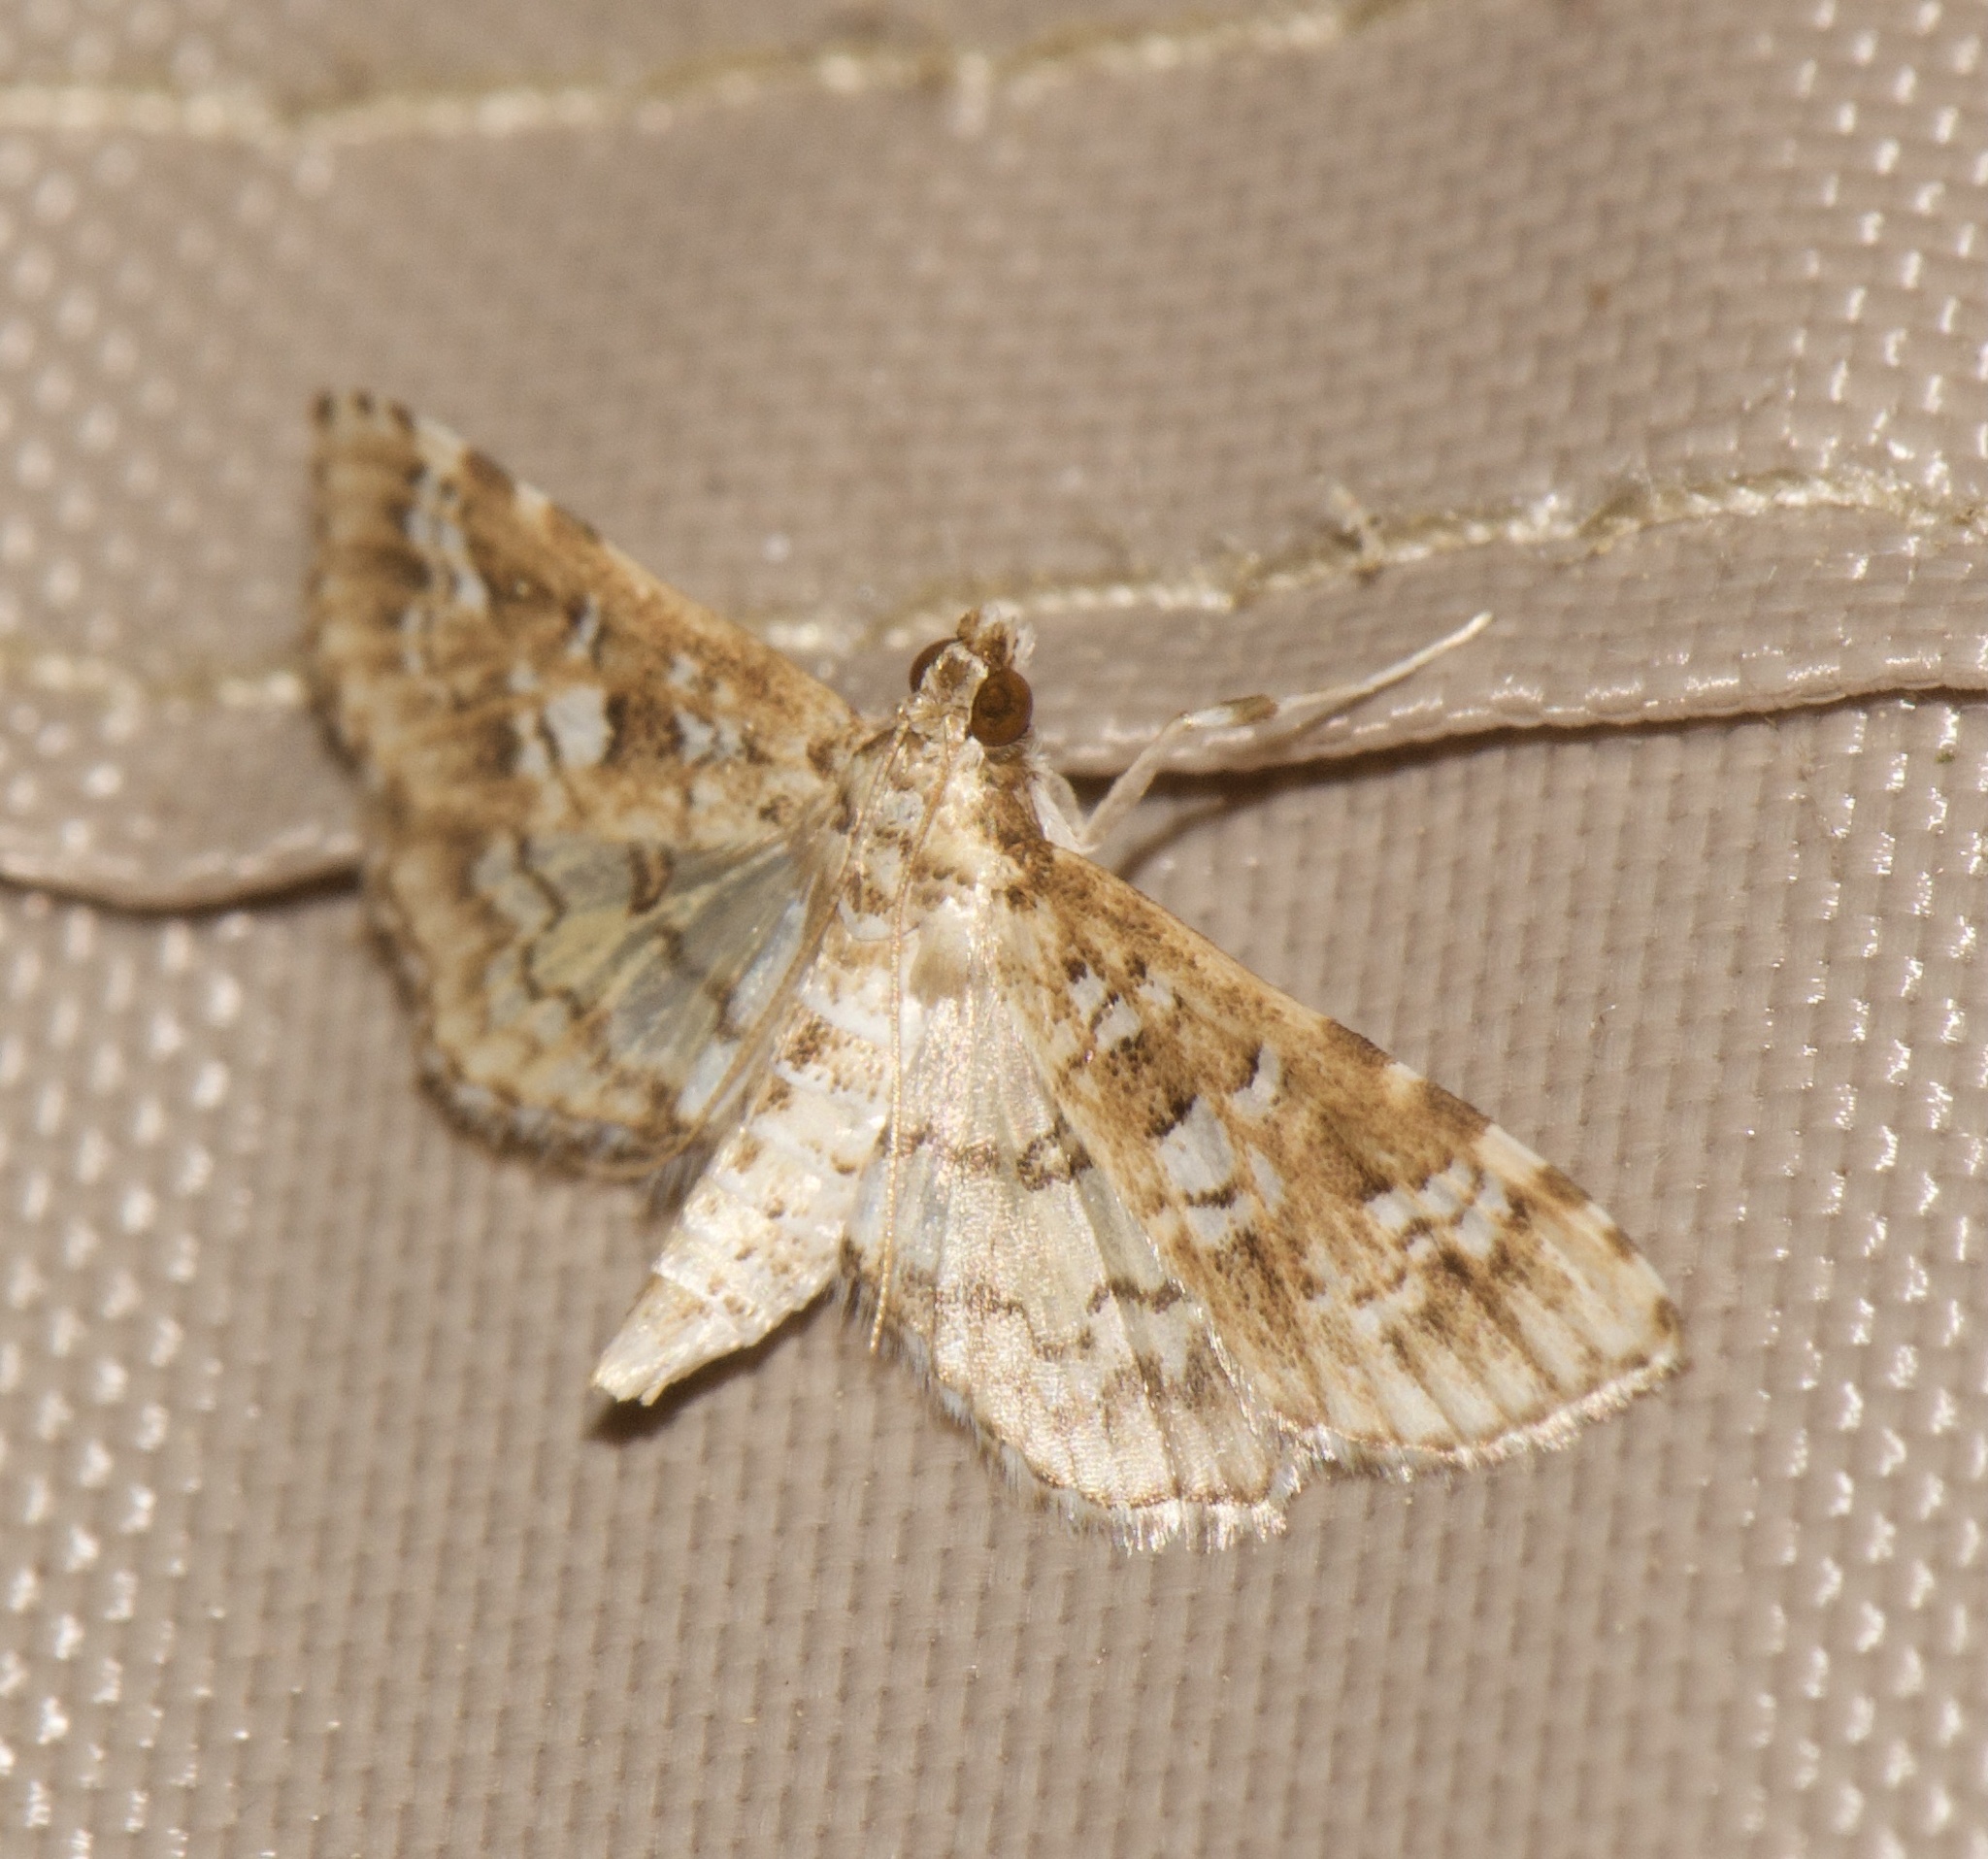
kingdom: Animalia
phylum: Arthropoda
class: Insecta
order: Lepidoptera
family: Crambidae
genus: Samea
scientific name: Samea multiplicalis
